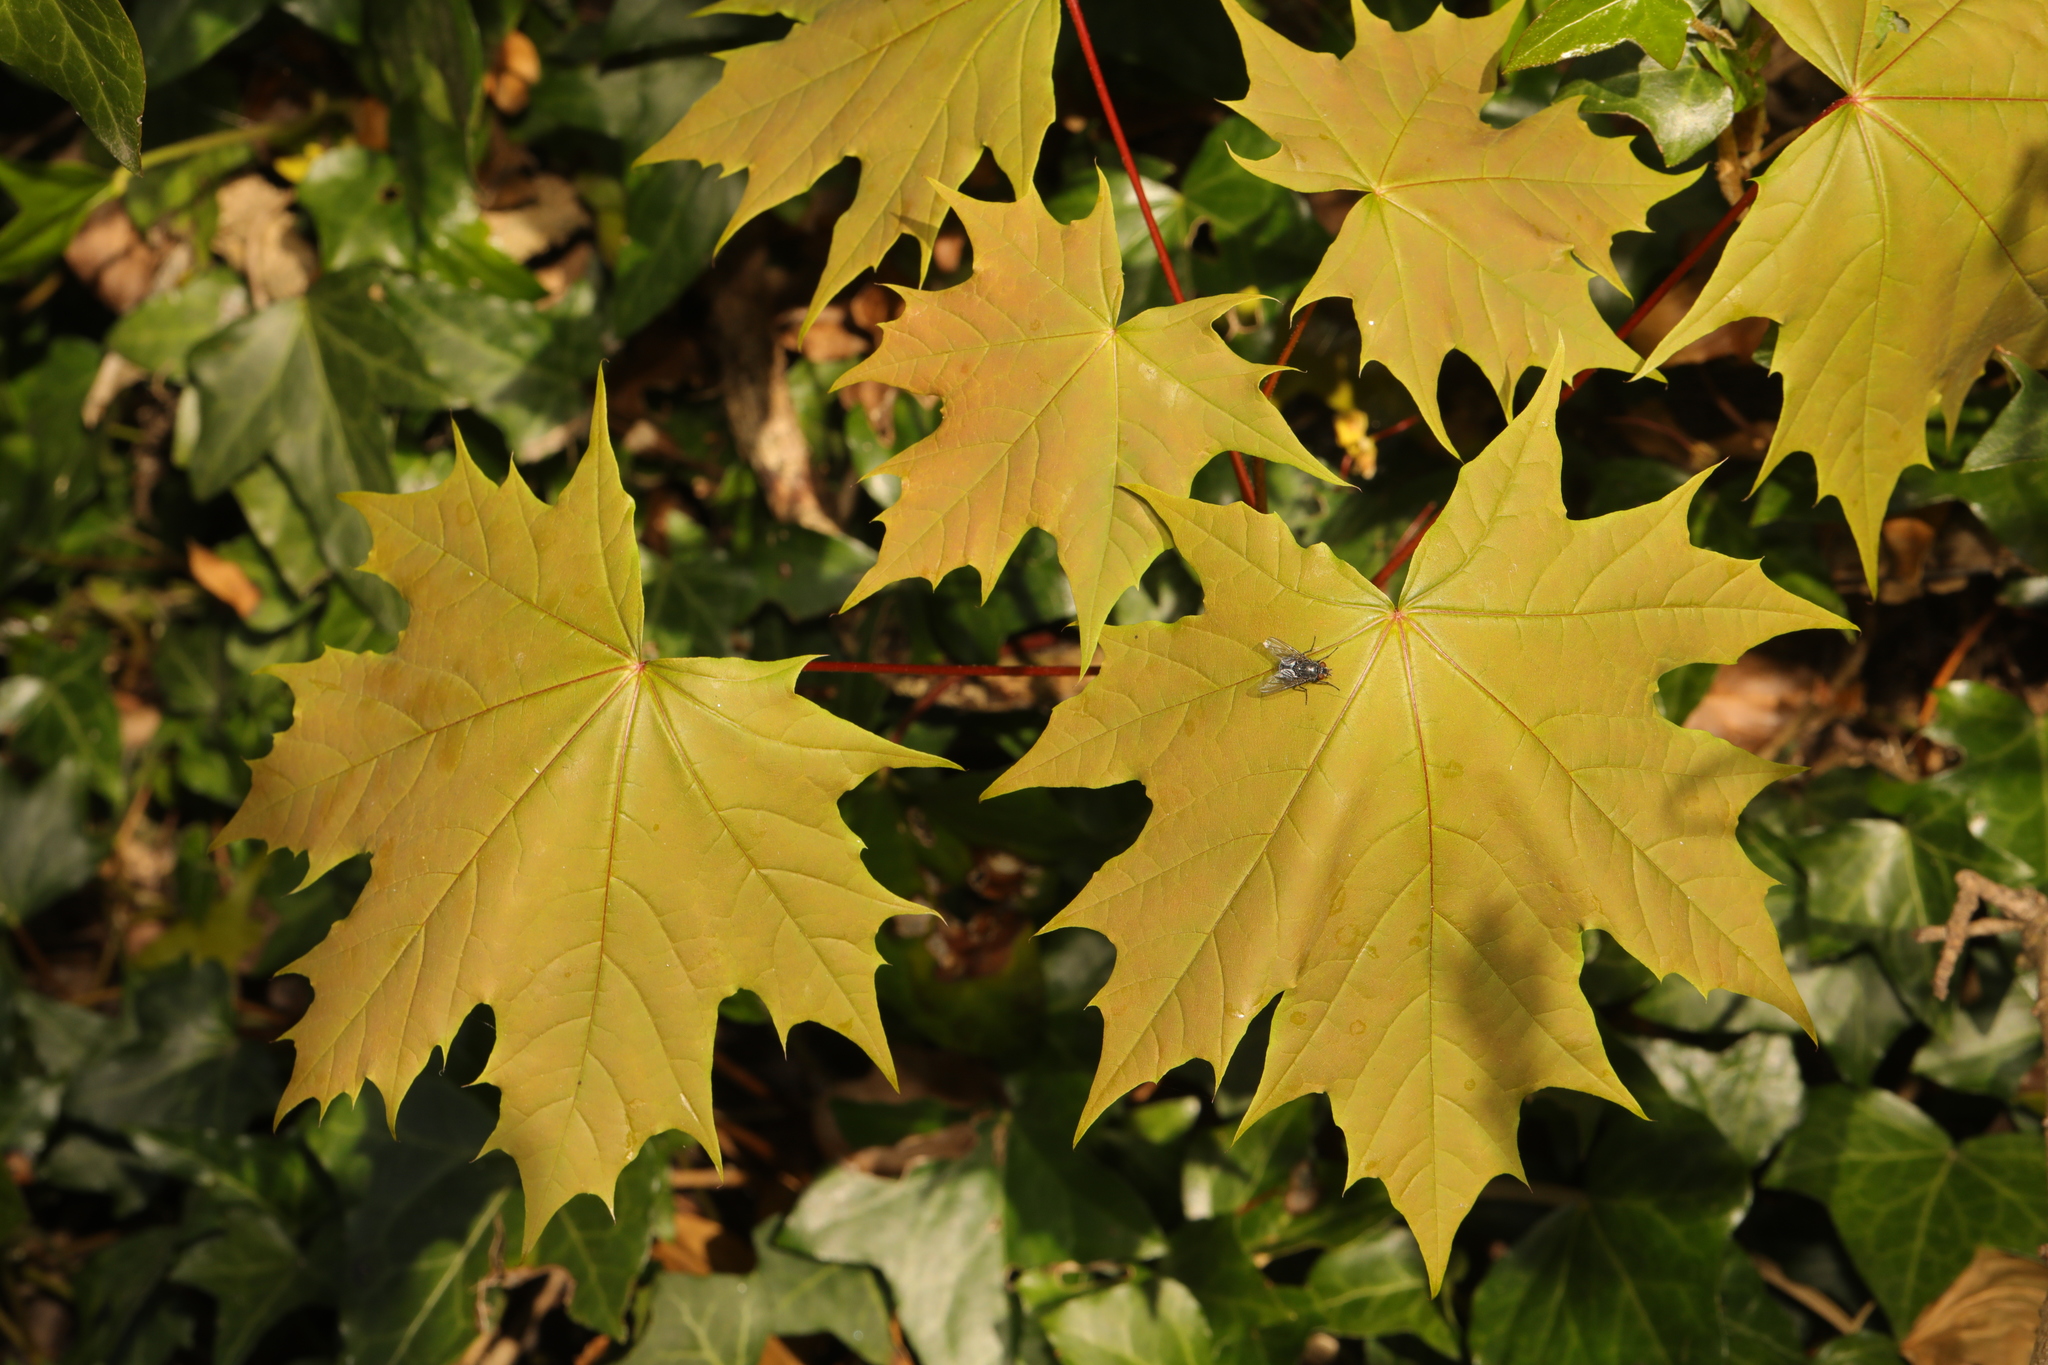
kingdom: Plantae
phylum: Tracheophyta
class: Magnoliopsida
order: Sapindales
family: Sapindaceae
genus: Acer
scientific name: Acer platanoides
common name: Norway maple
